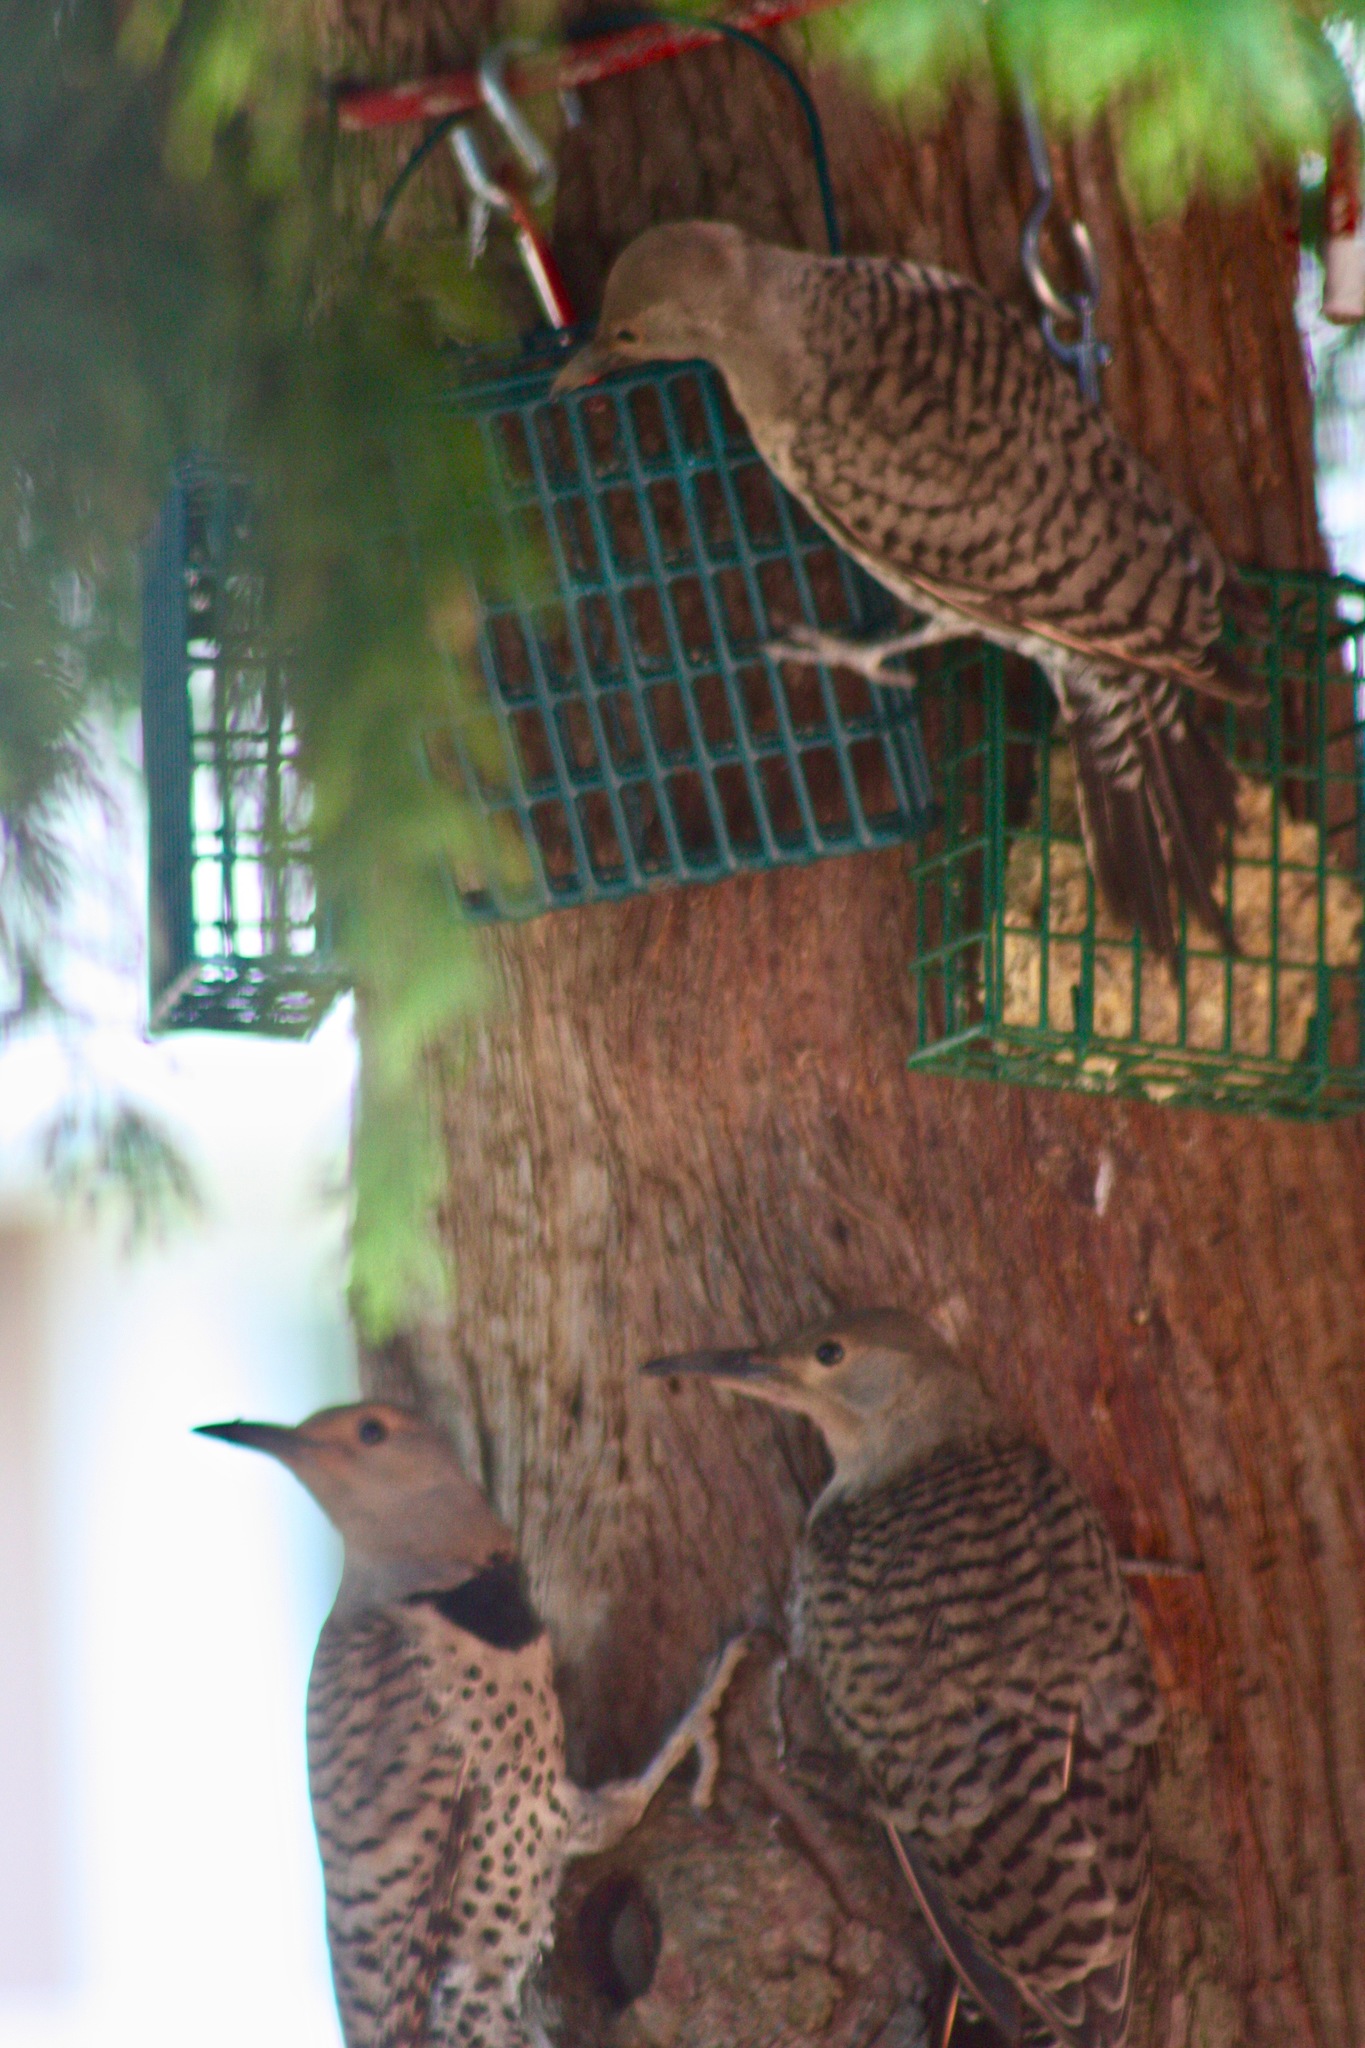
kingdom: Animalia
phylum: Chordata
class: Aves
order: Piciformes
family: Picidae
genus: Colaptes
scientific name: Colaptes auratus
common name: Northern flicker
